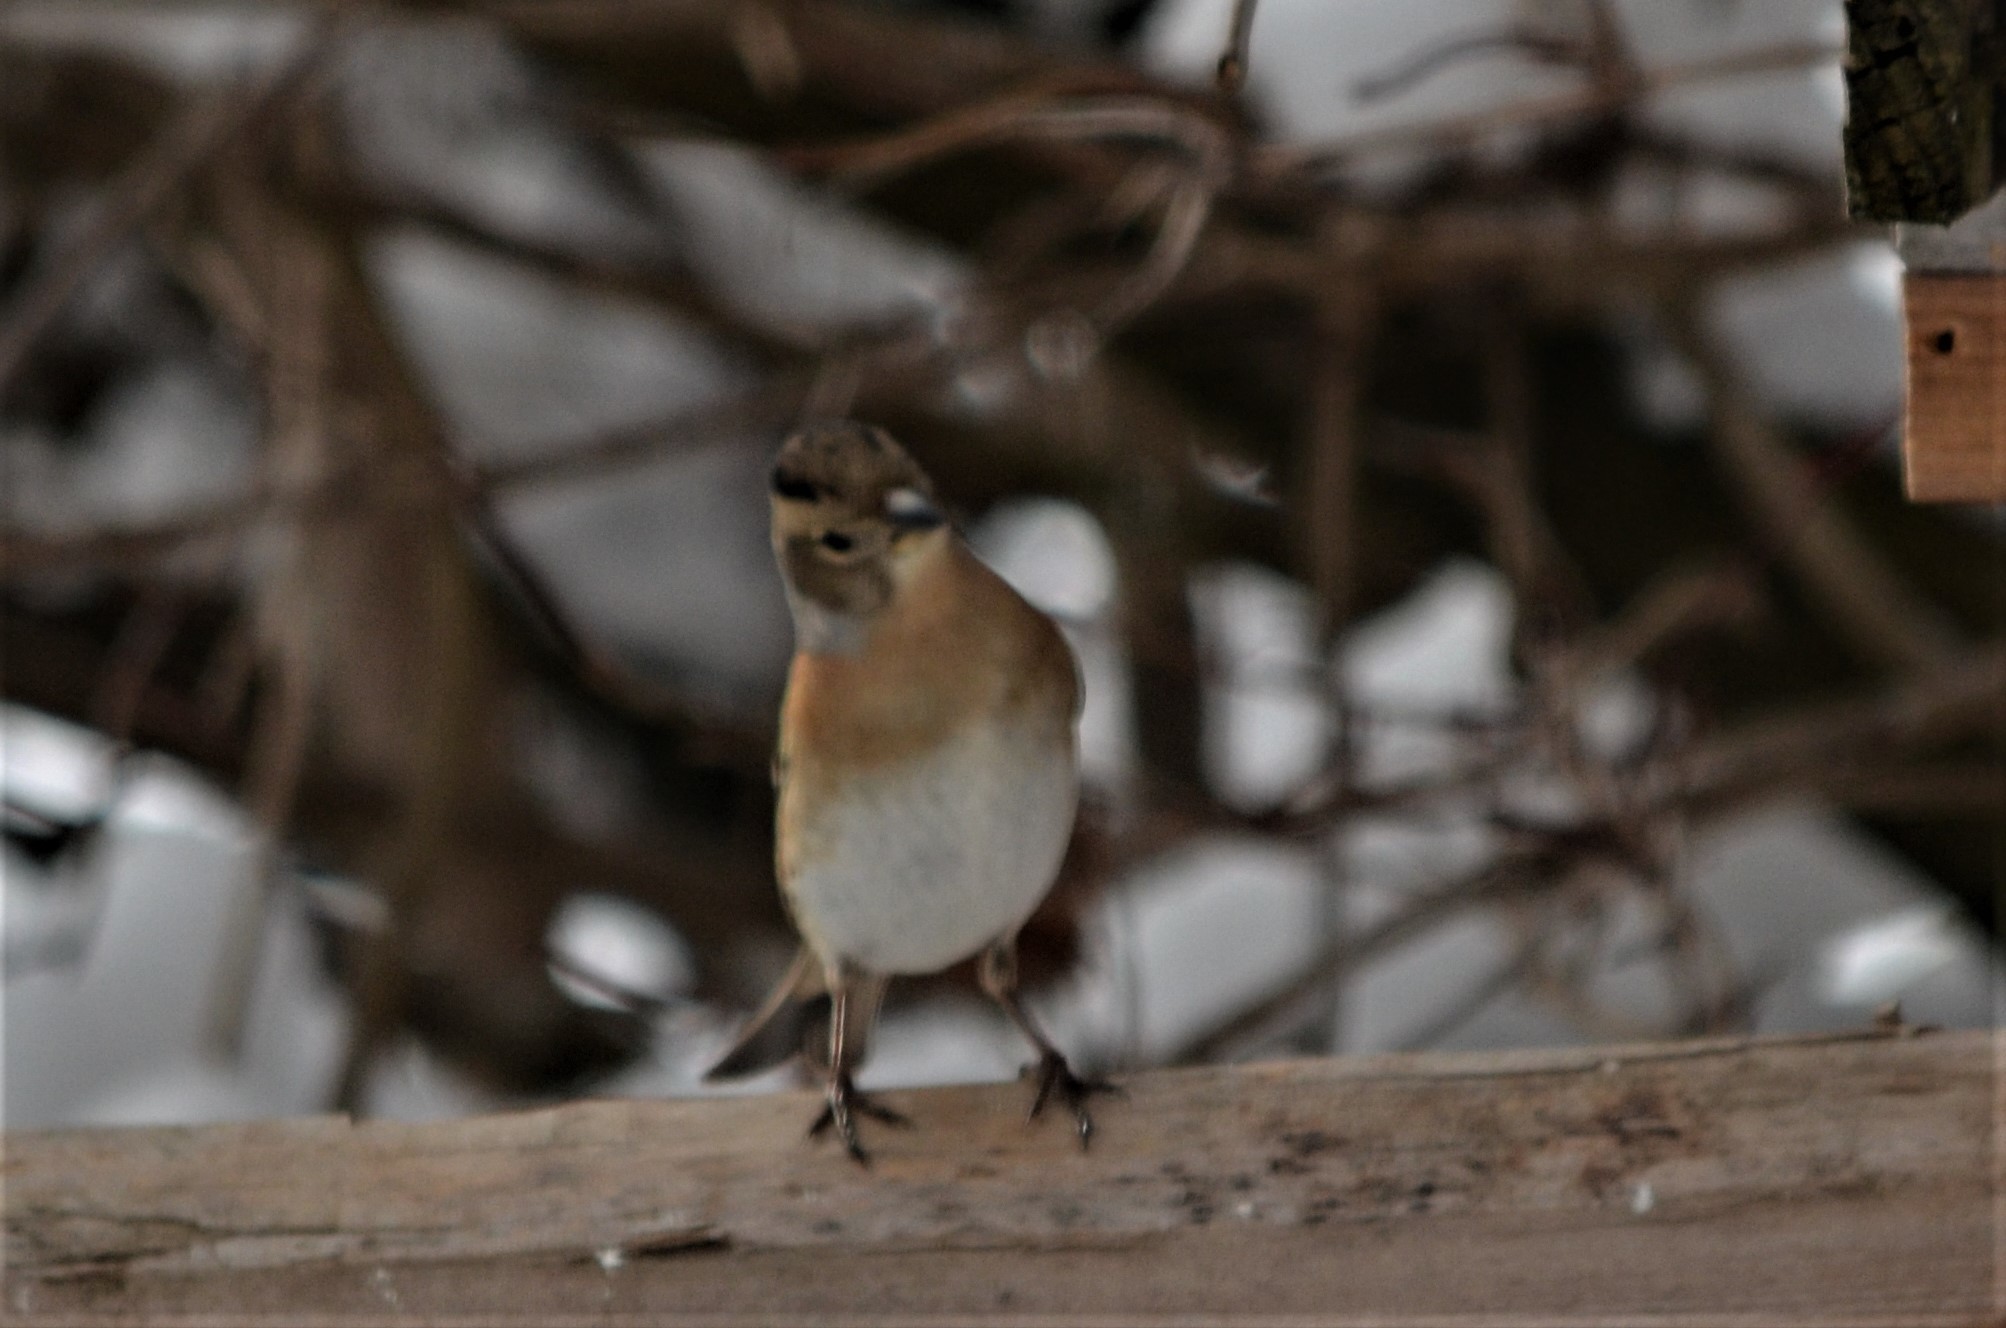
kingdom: Animalia
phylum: Chordata
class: Aves
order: Passeriformes
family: Fringillidae
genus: Fringilla
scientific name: Fringilla montifringilla
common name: Brambling
